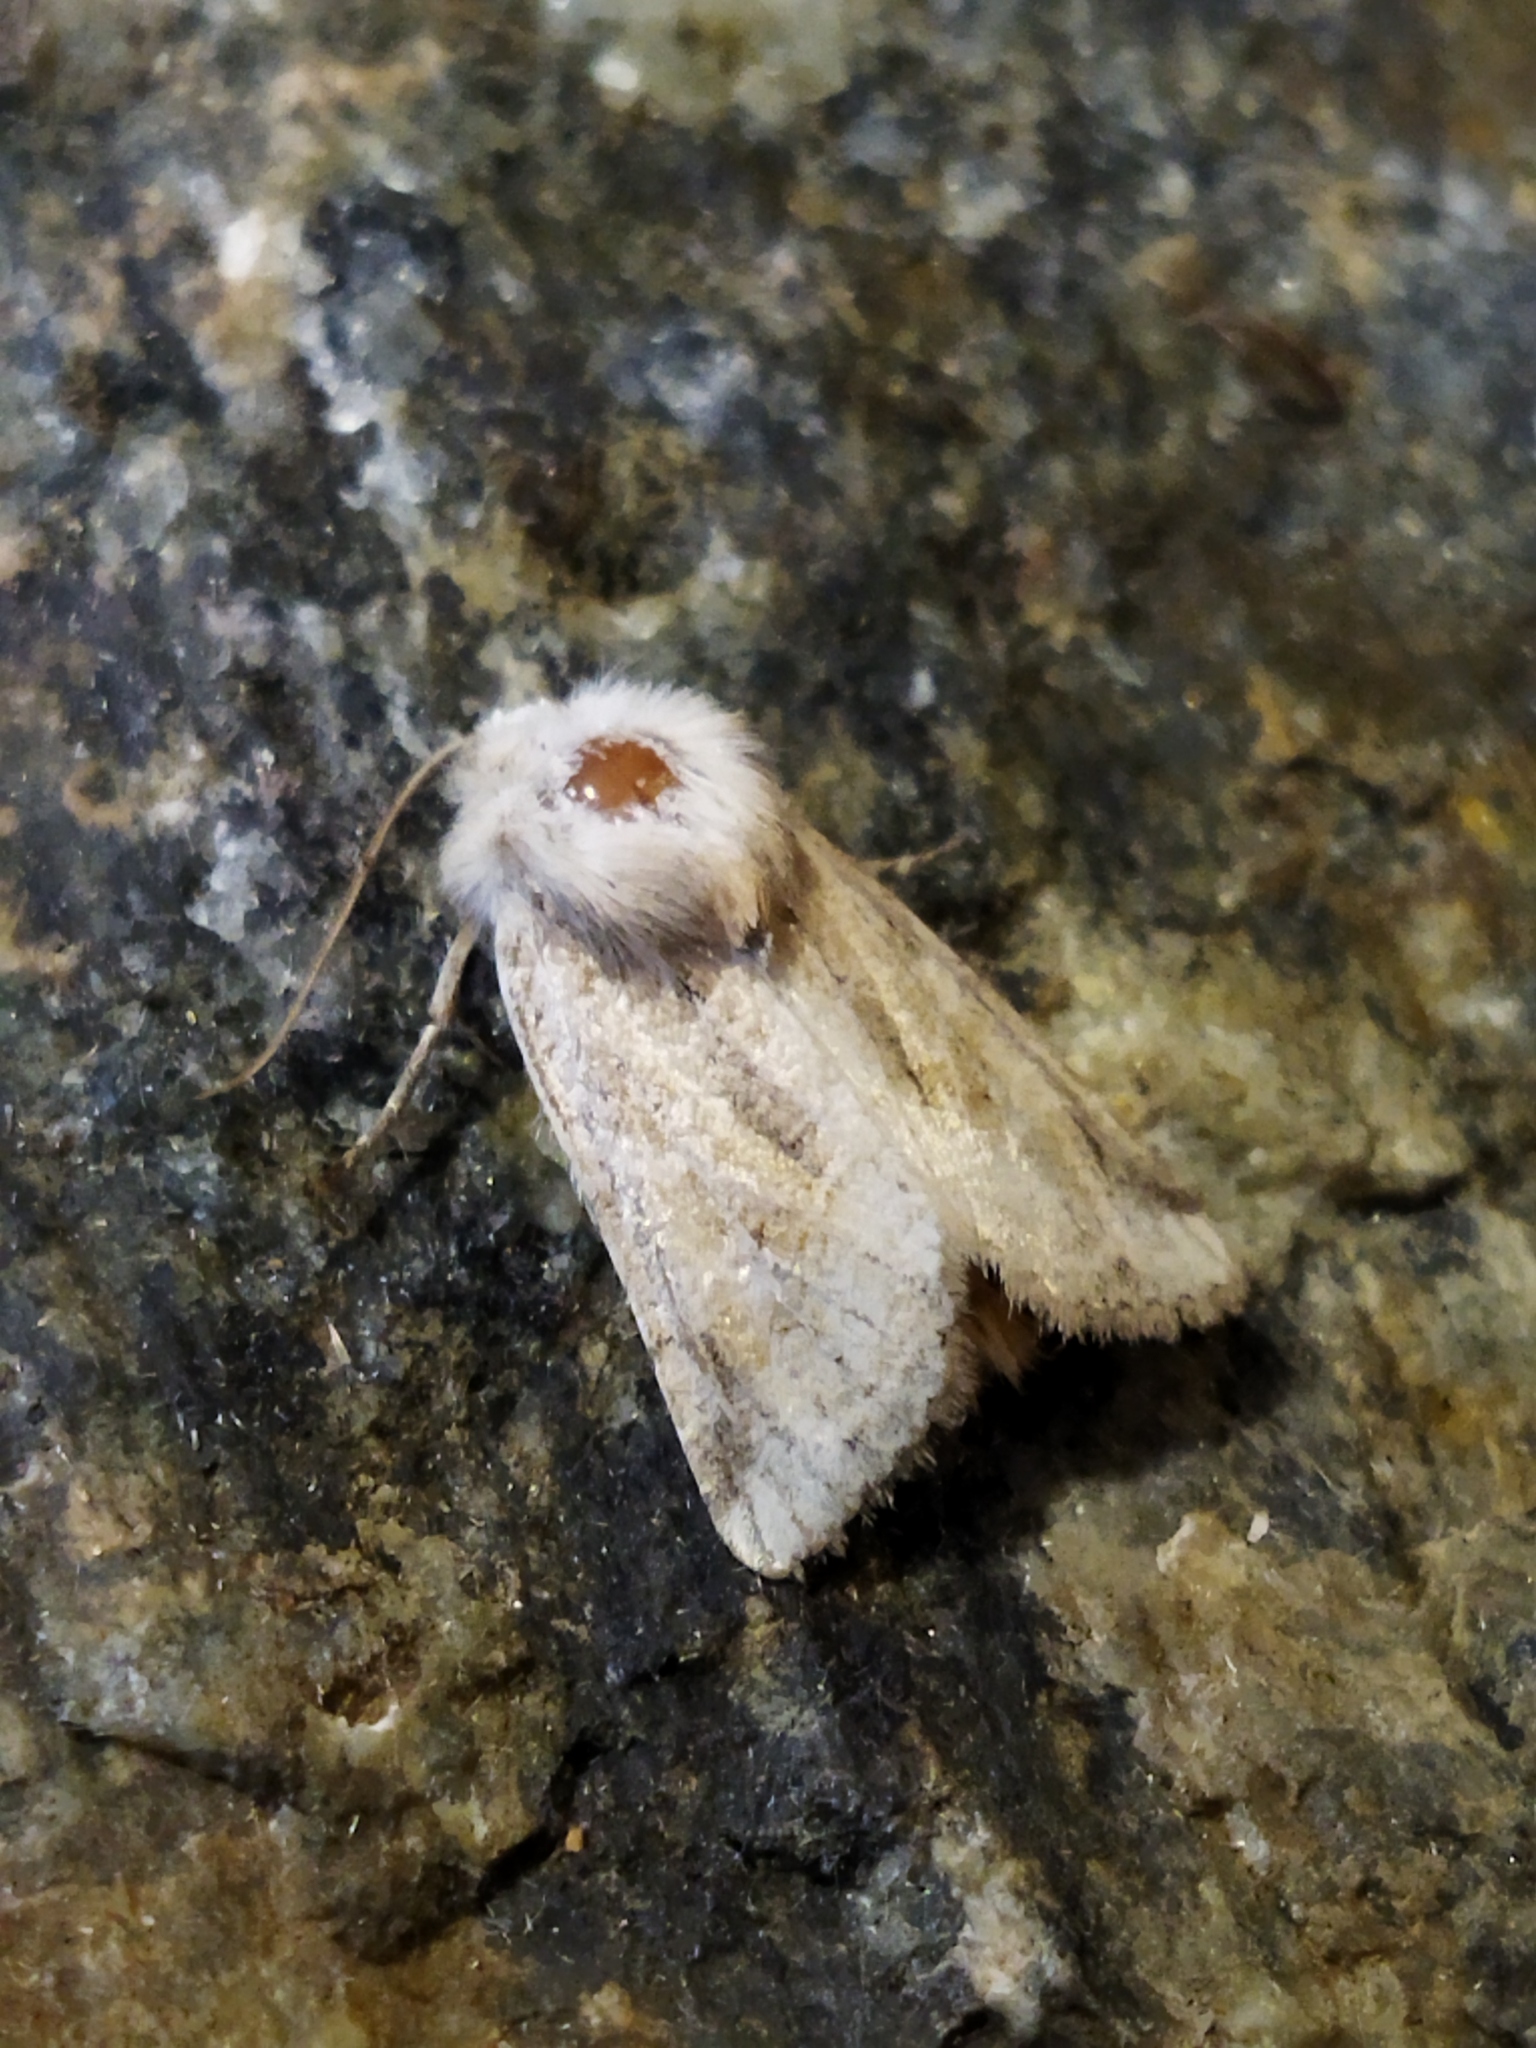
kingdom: Animalia
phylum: Arthropoda
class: Insecta
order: Lepidoptera
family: Noctuidae
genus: Luperina
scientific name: Luperina dumerilii
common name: Dumeril's rustic
